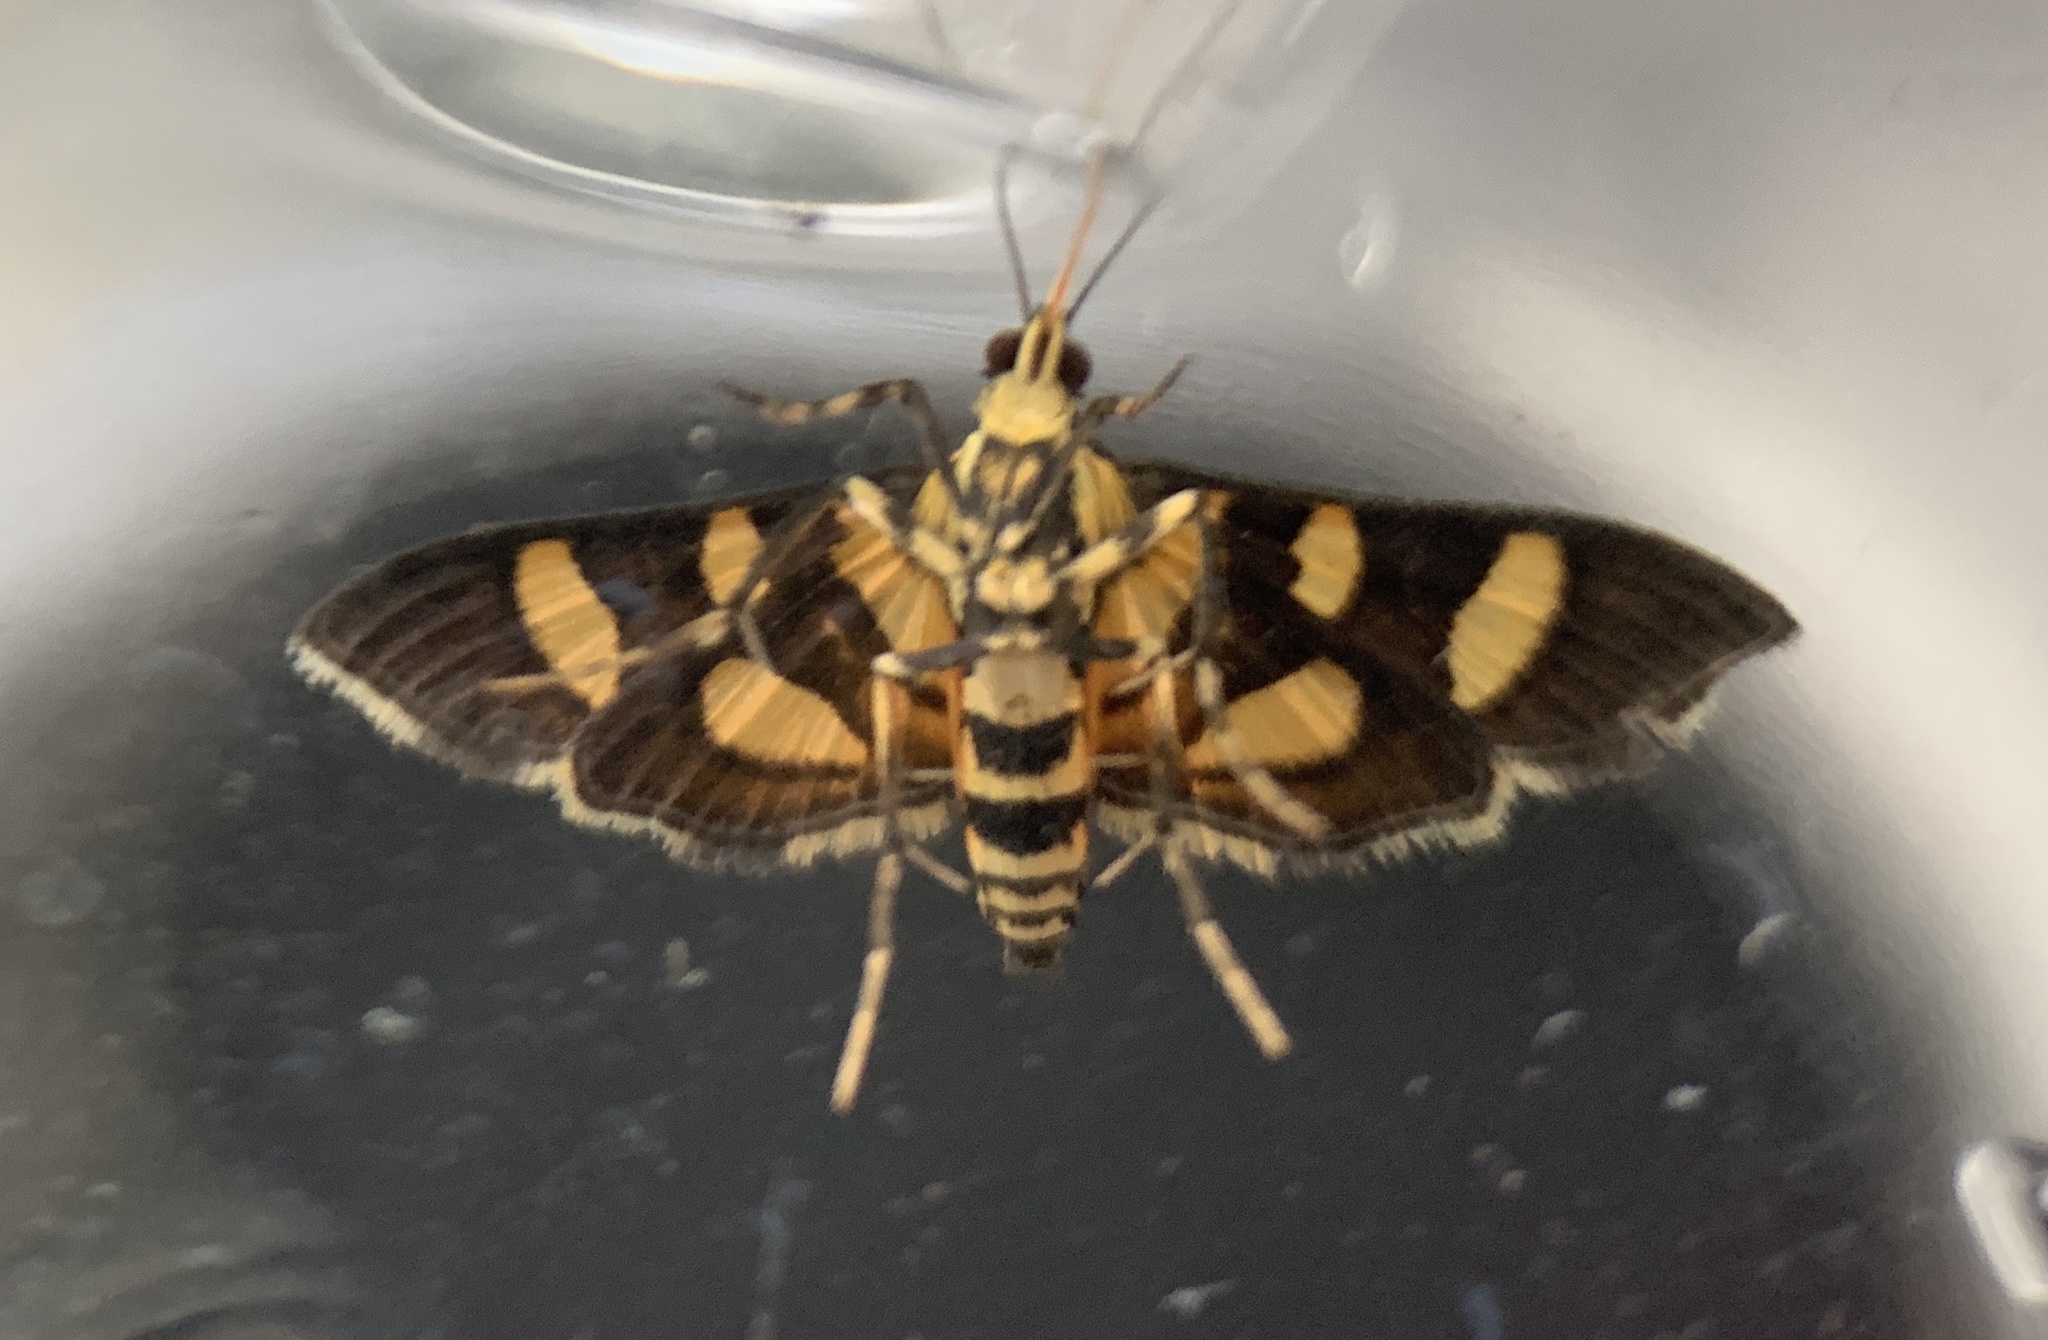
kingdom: Animalia
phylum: Arthropoda
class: Insecta
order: Lepidoptera
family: Crambidae
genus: Syngamia
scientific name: Syngamia florella
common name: Orange-spotted flower moth
